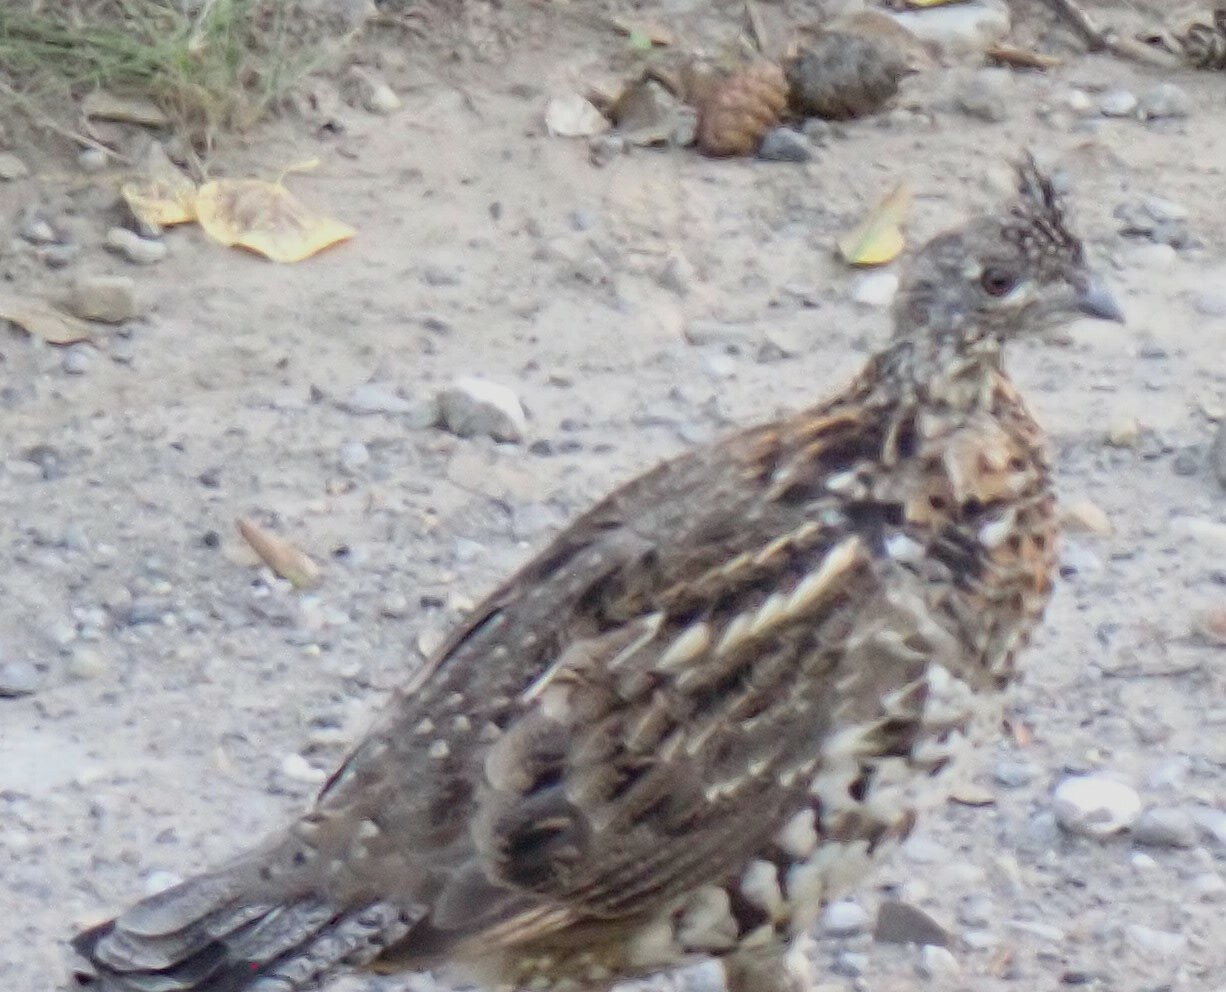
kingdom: Animalia
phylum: Chordata
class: Aves
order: Galliformes
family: Phasianidae
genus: Bonasa
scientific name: Bonasa umbellus
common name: Ruffed grouse
